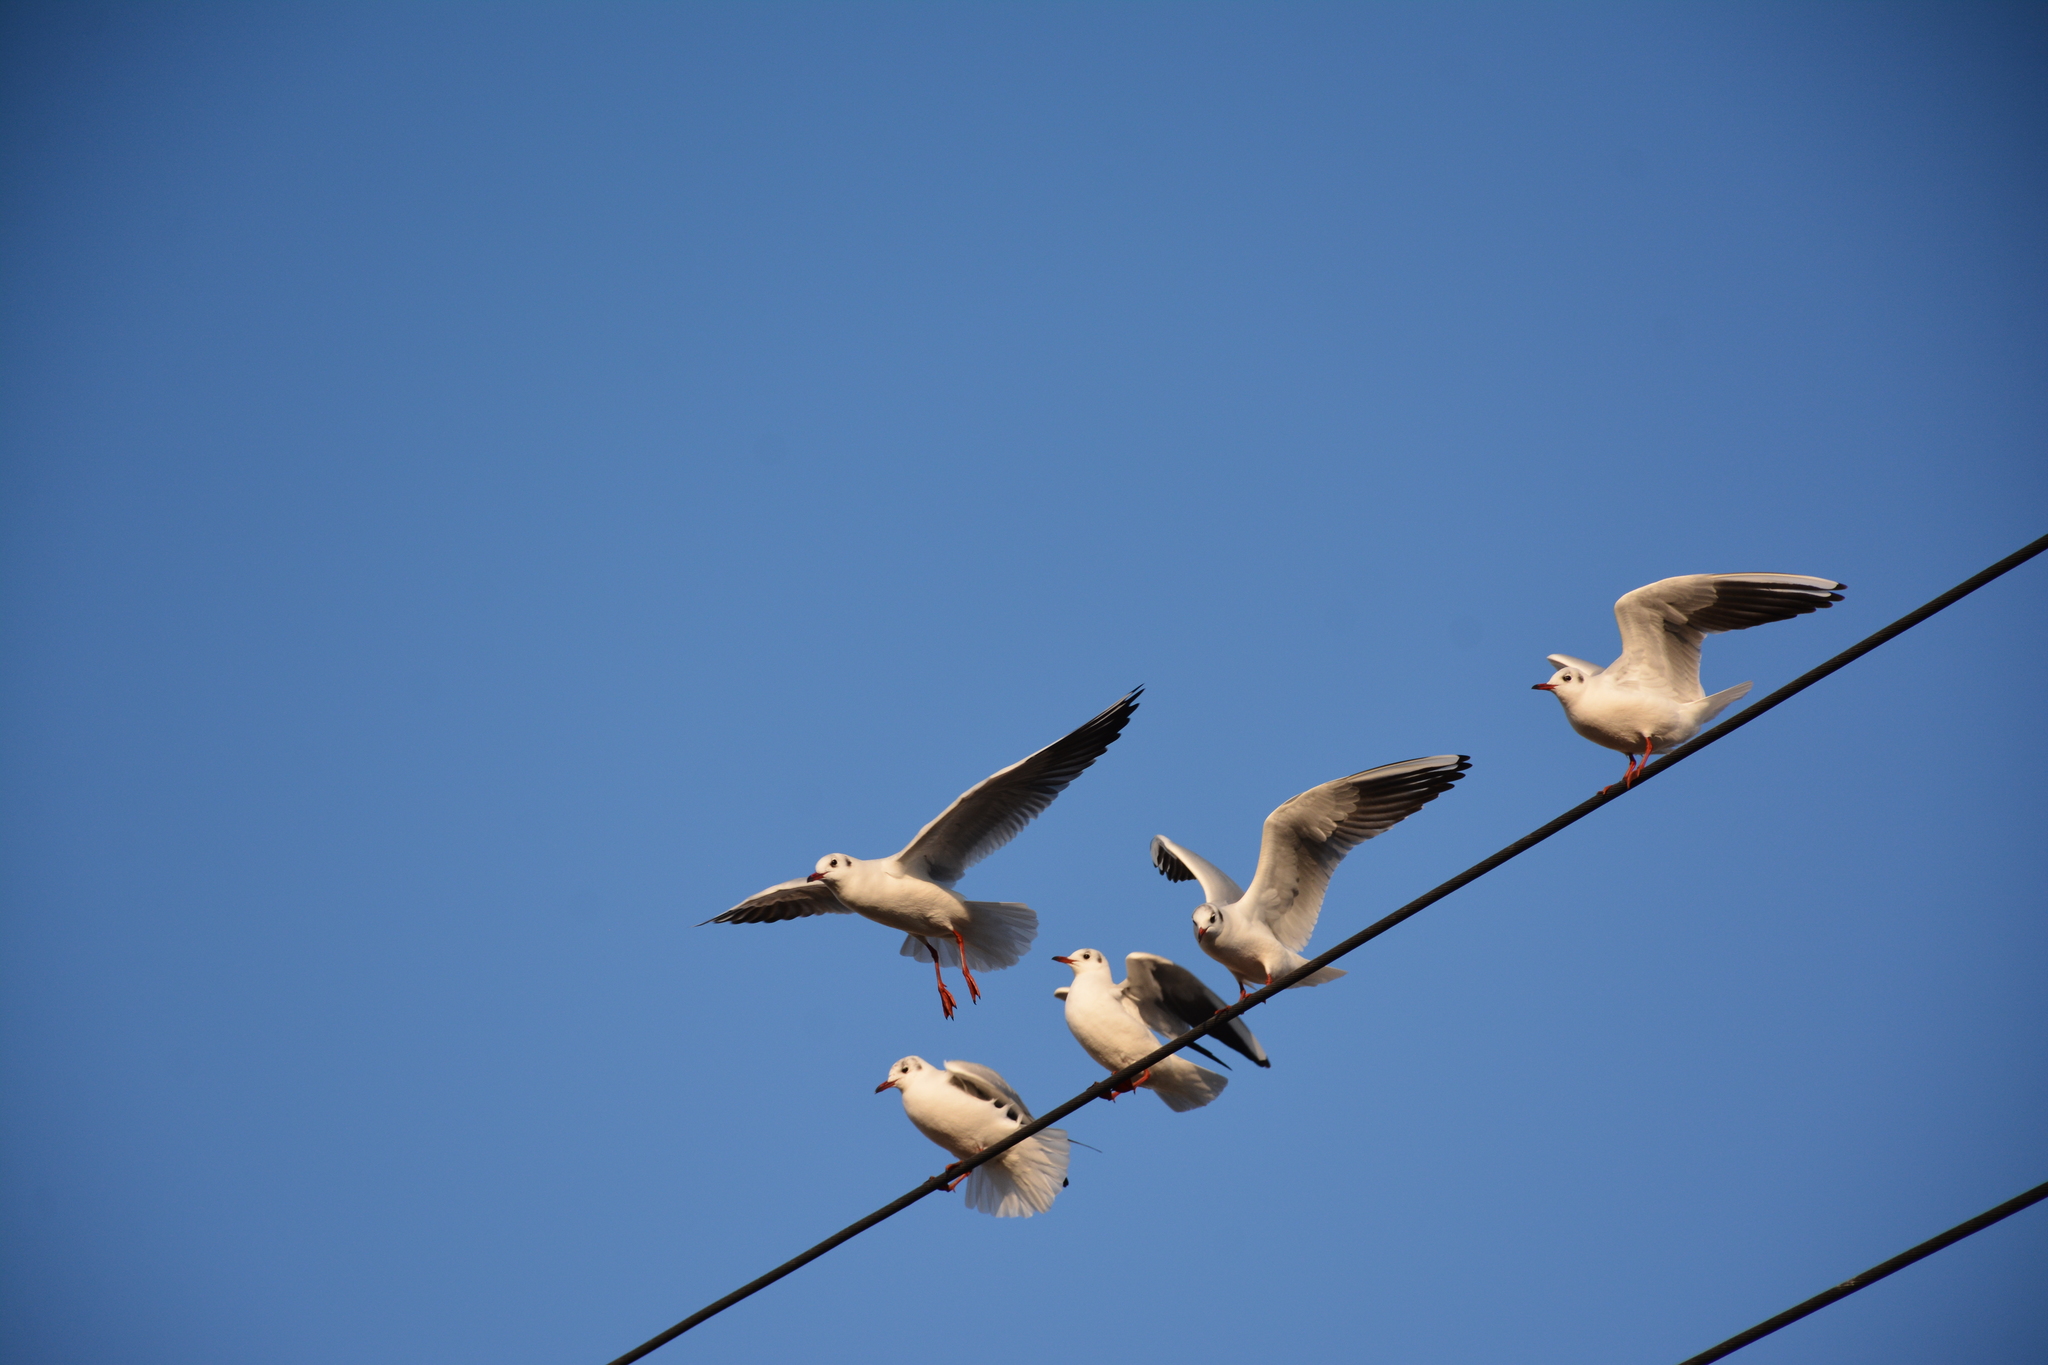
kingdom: Animalia
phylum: Chordata
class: Aves
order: Charadriiformes
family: Laridae
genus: Chroicocephalus
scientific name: Chroicocephalus ridibundus
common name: Black-headed gull
